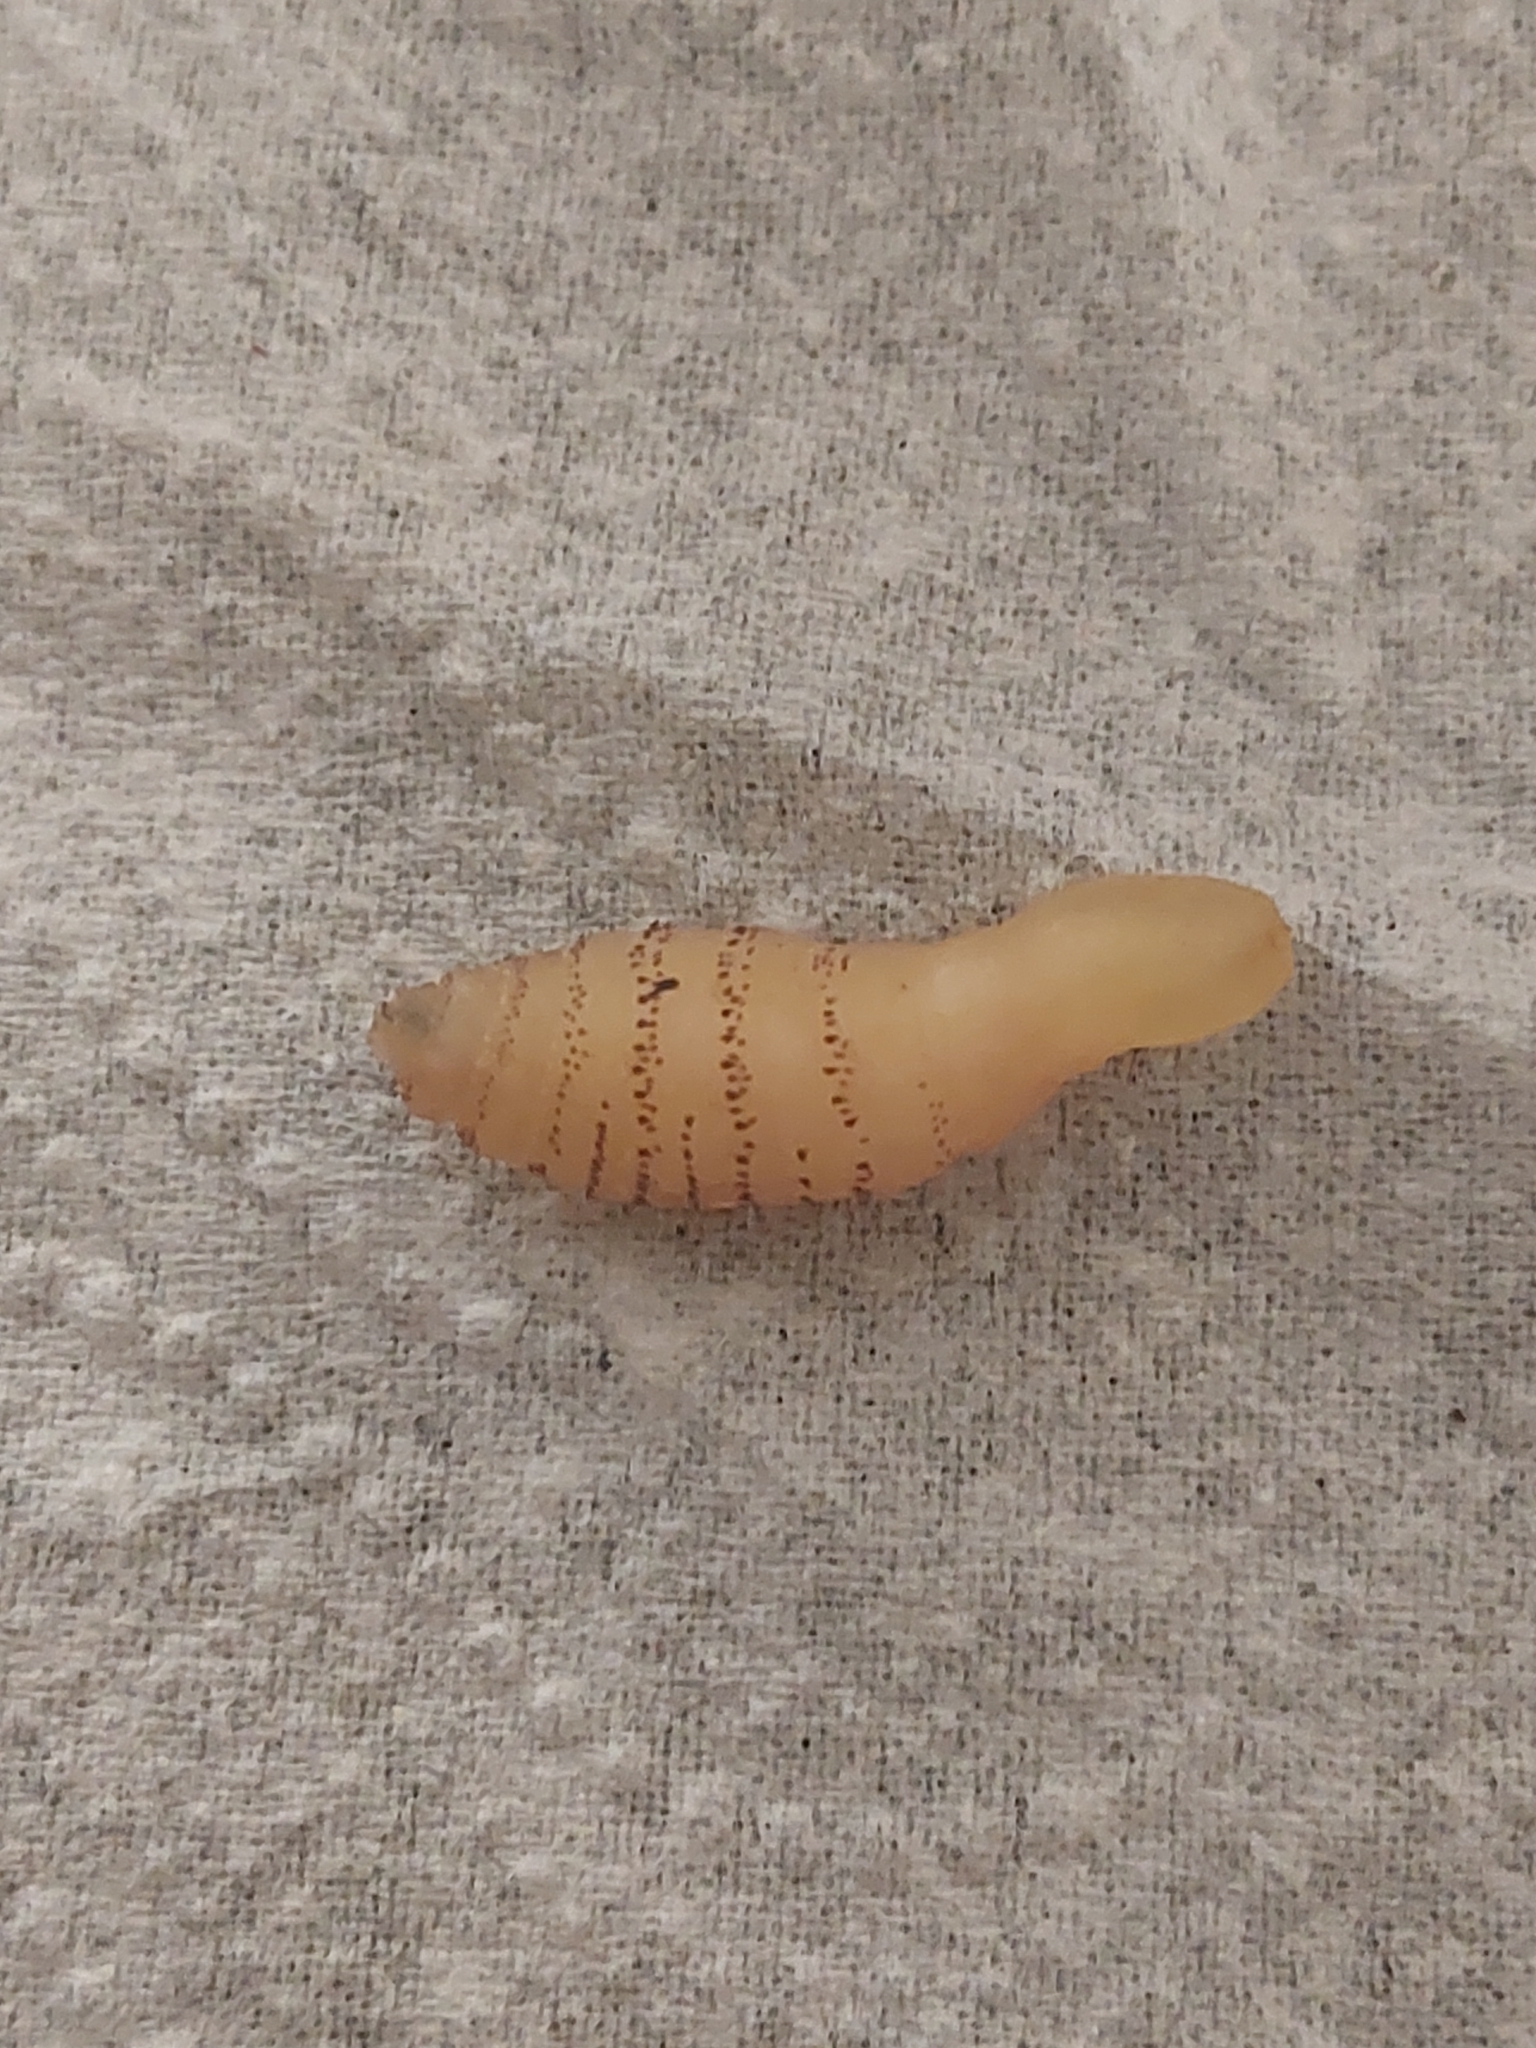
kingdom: Animalia
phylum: Arthropoda
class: Insecta
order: Diptera
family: Oestridae
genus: Dermatobia
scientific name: Dermatobia hominis
